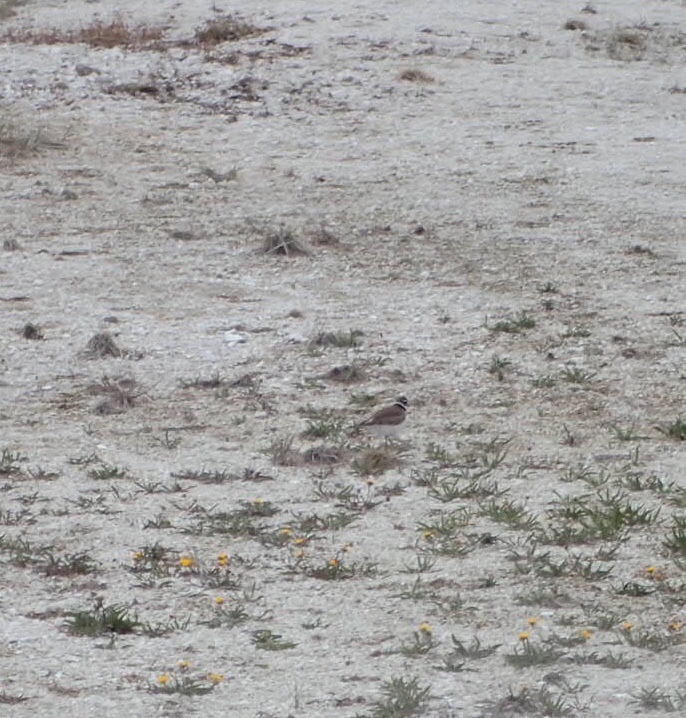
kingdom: Animalia
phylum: Chordata
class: Aves
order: Charadriiformes
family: Charadriidae
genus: Charadrius
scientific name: Charadrius vociferus
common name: Killdeer
